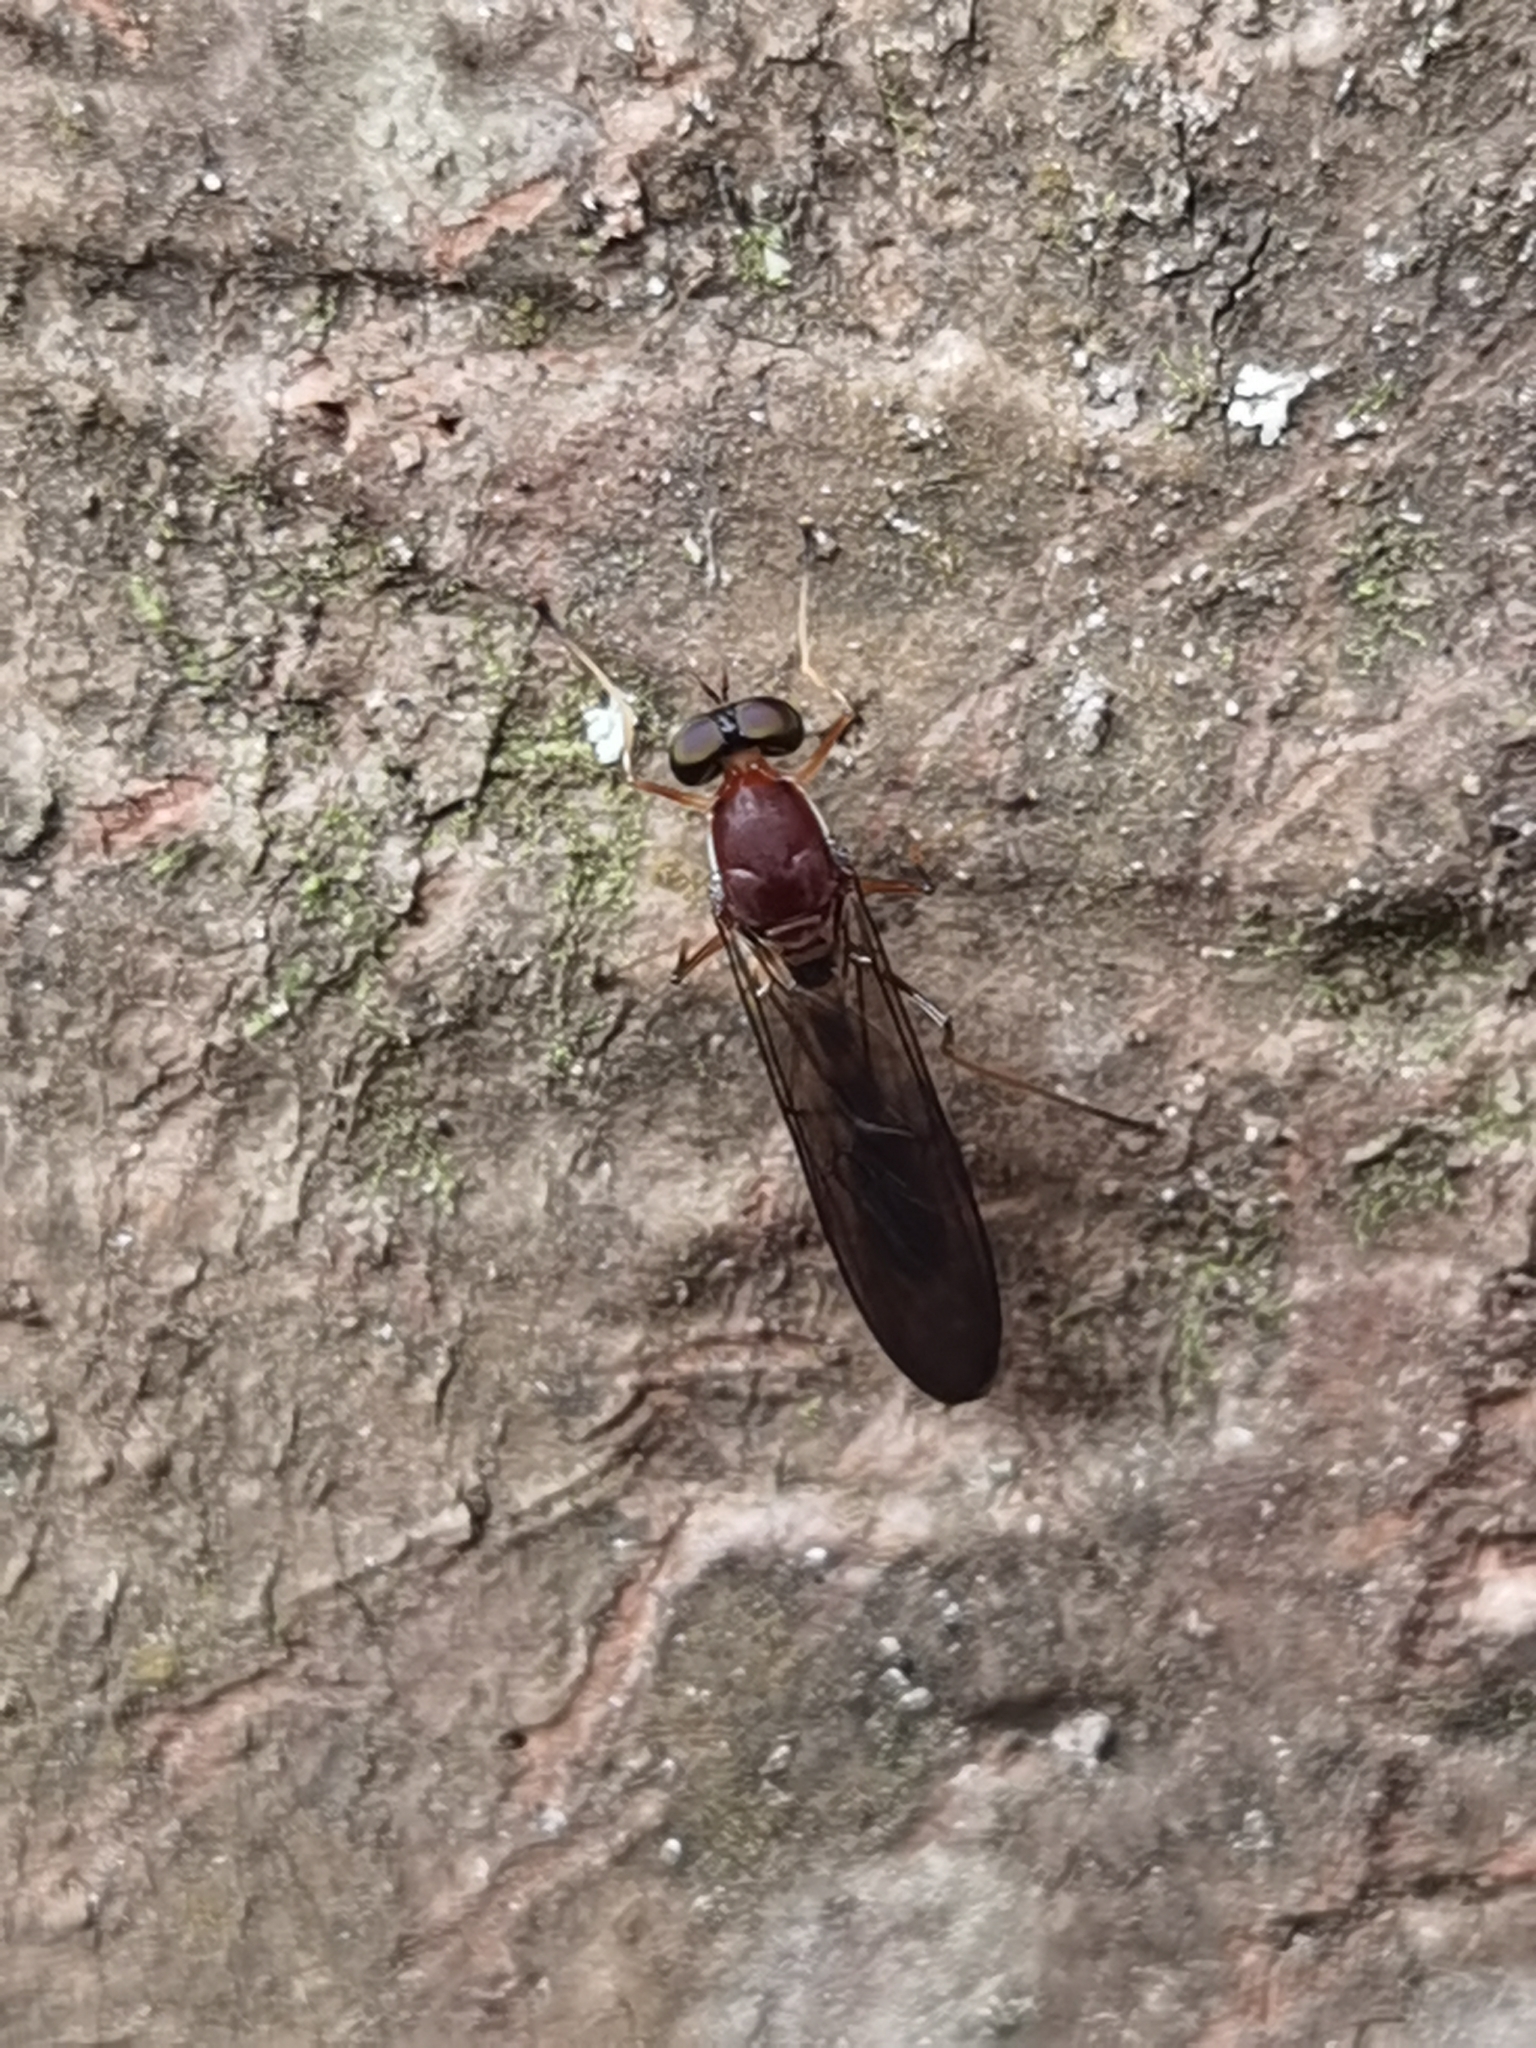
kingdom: Animalia
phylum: Arthropoda
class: Insecta
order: Diptera
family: Stratiomyidae
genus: Merosargus
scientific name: Merosargus coriaceus
